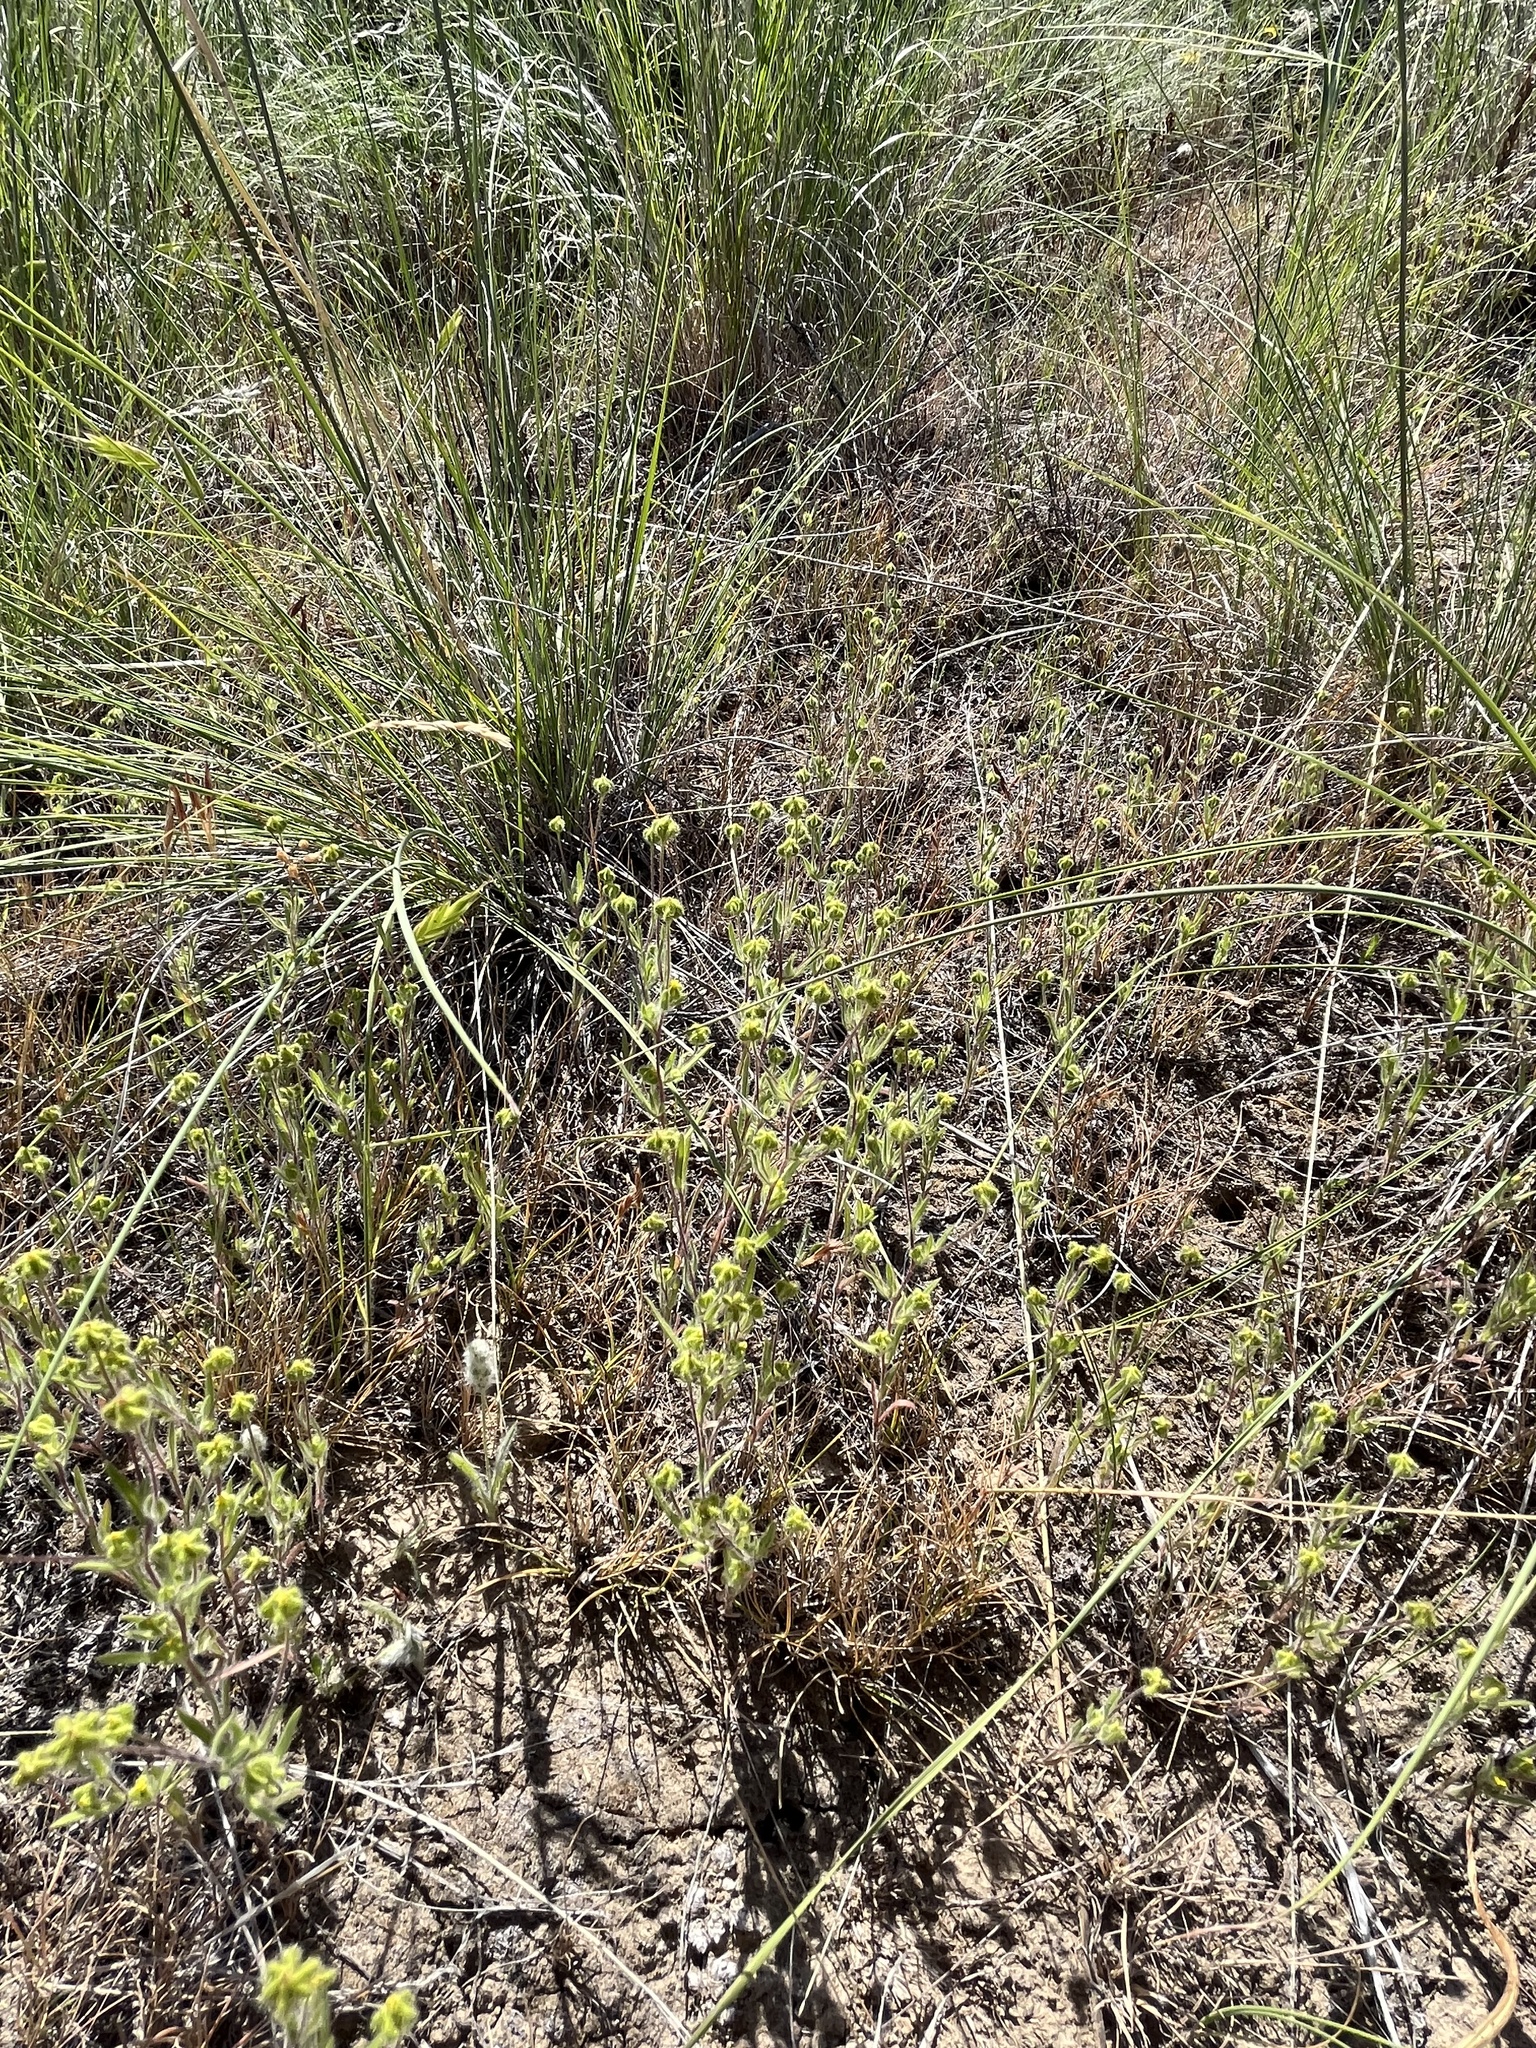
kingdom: Plantae
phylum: Tracheophyta
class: Magnoliopsida
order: Asterales
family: Asteraceae
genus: Madia
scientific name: Madia citriodora
